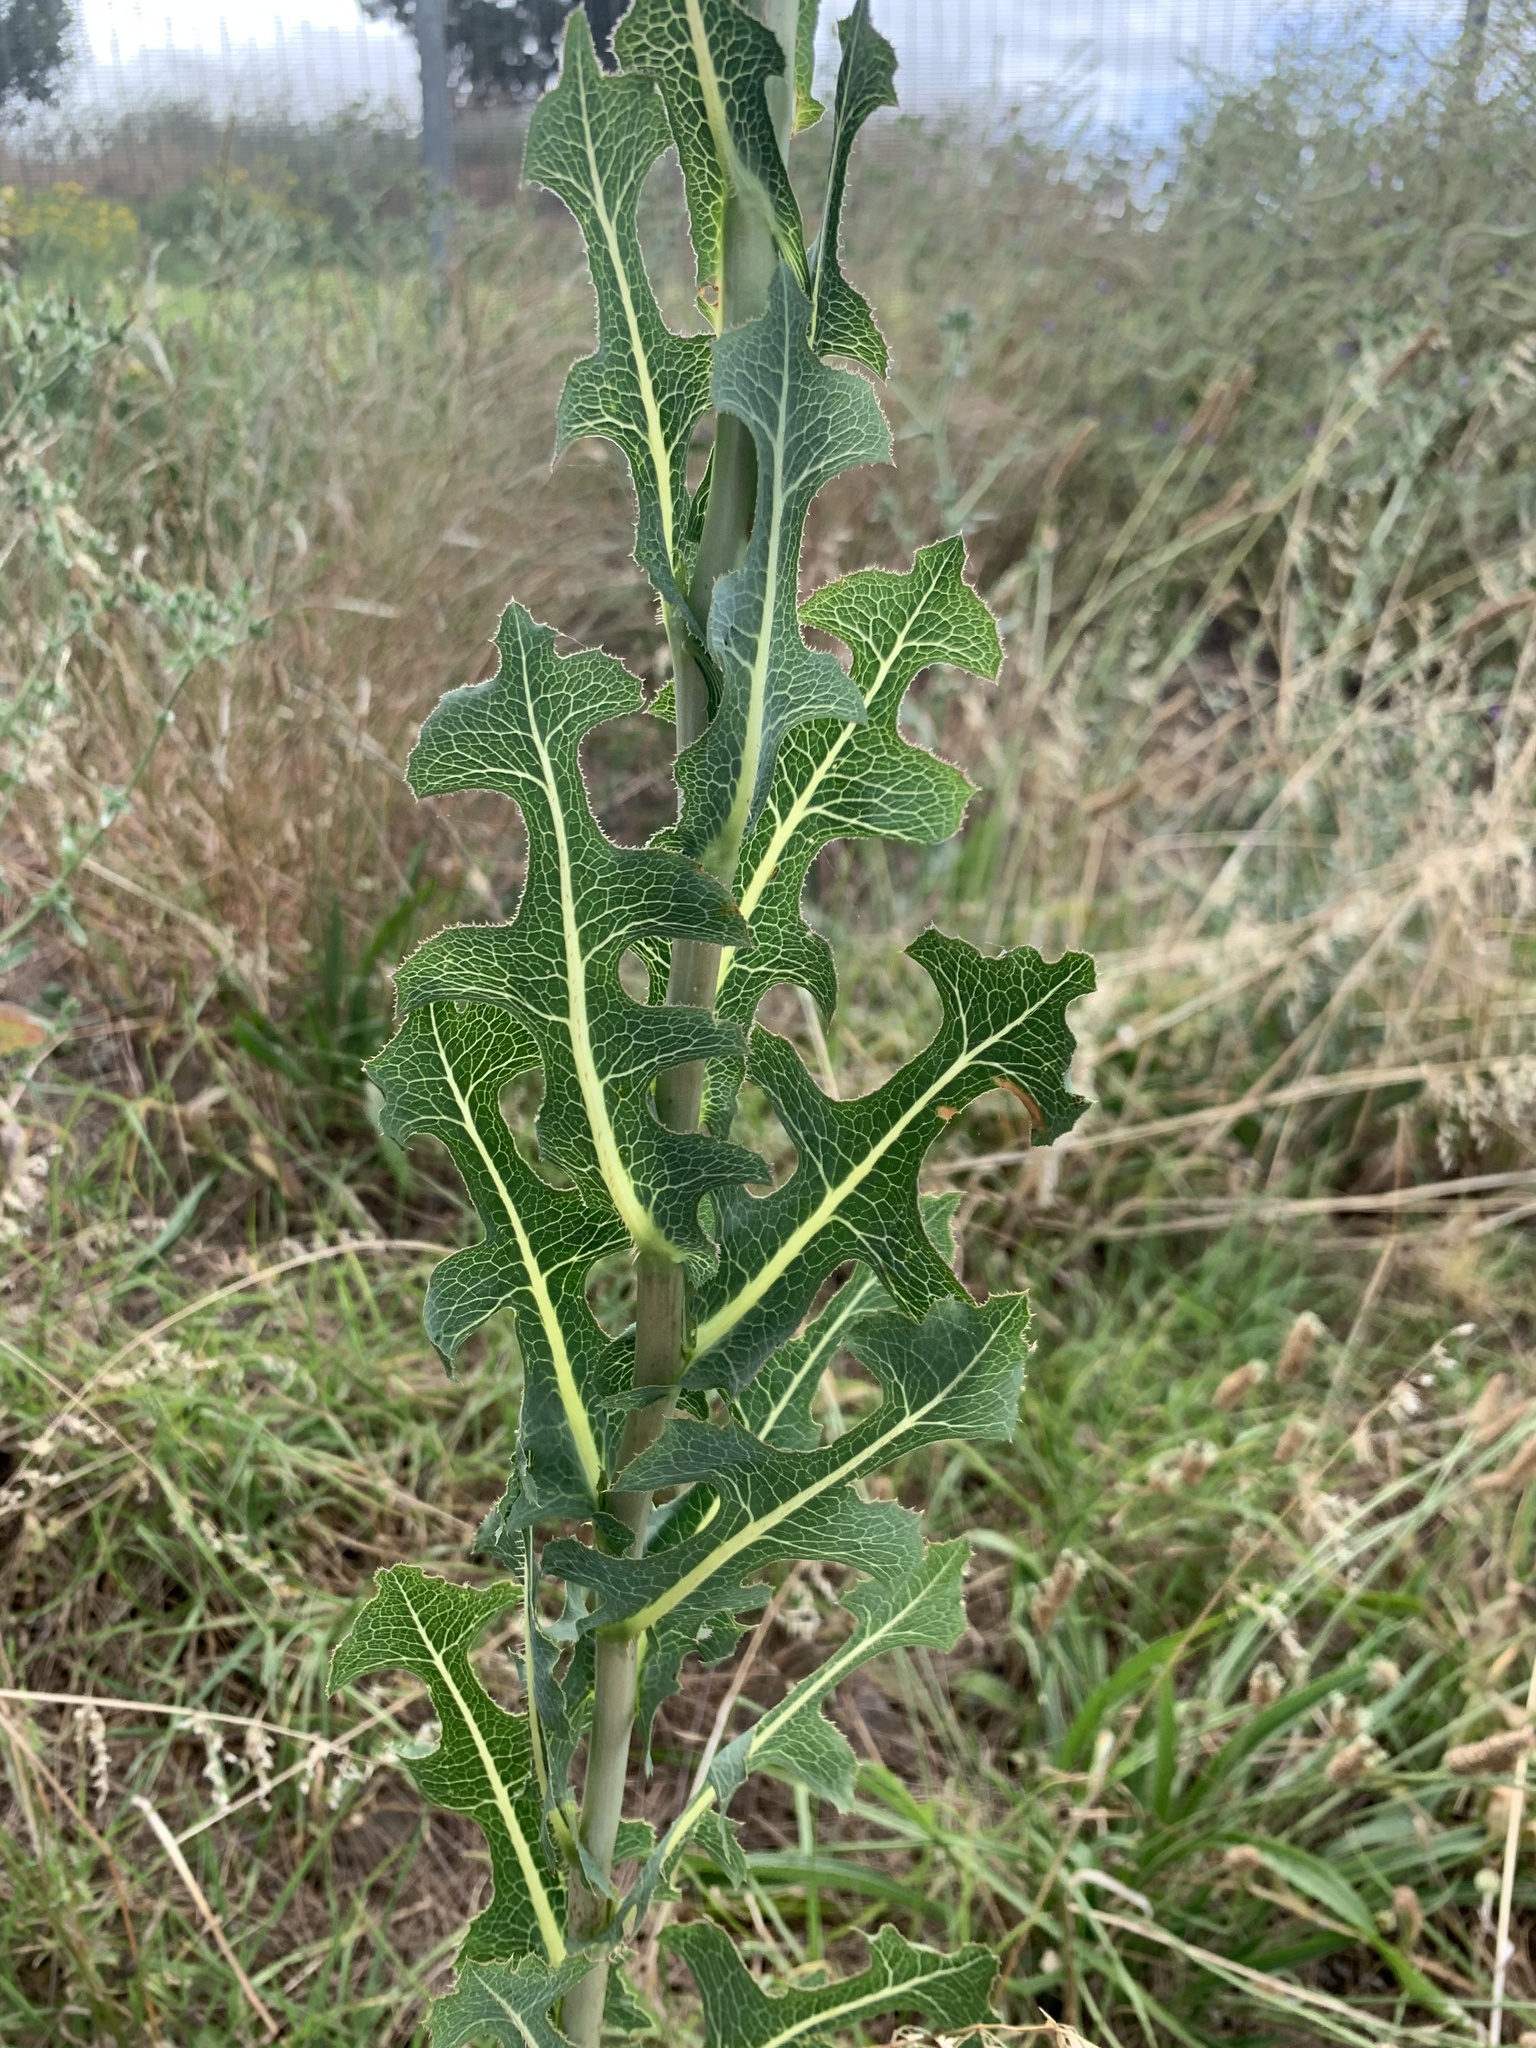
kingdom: Plantae
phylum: Tracheophyta
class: Magnoliopsida
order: Asterales
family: Asteraceae
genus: Lactuca
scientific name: Lactuca serriola
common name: Prickly lettuce
